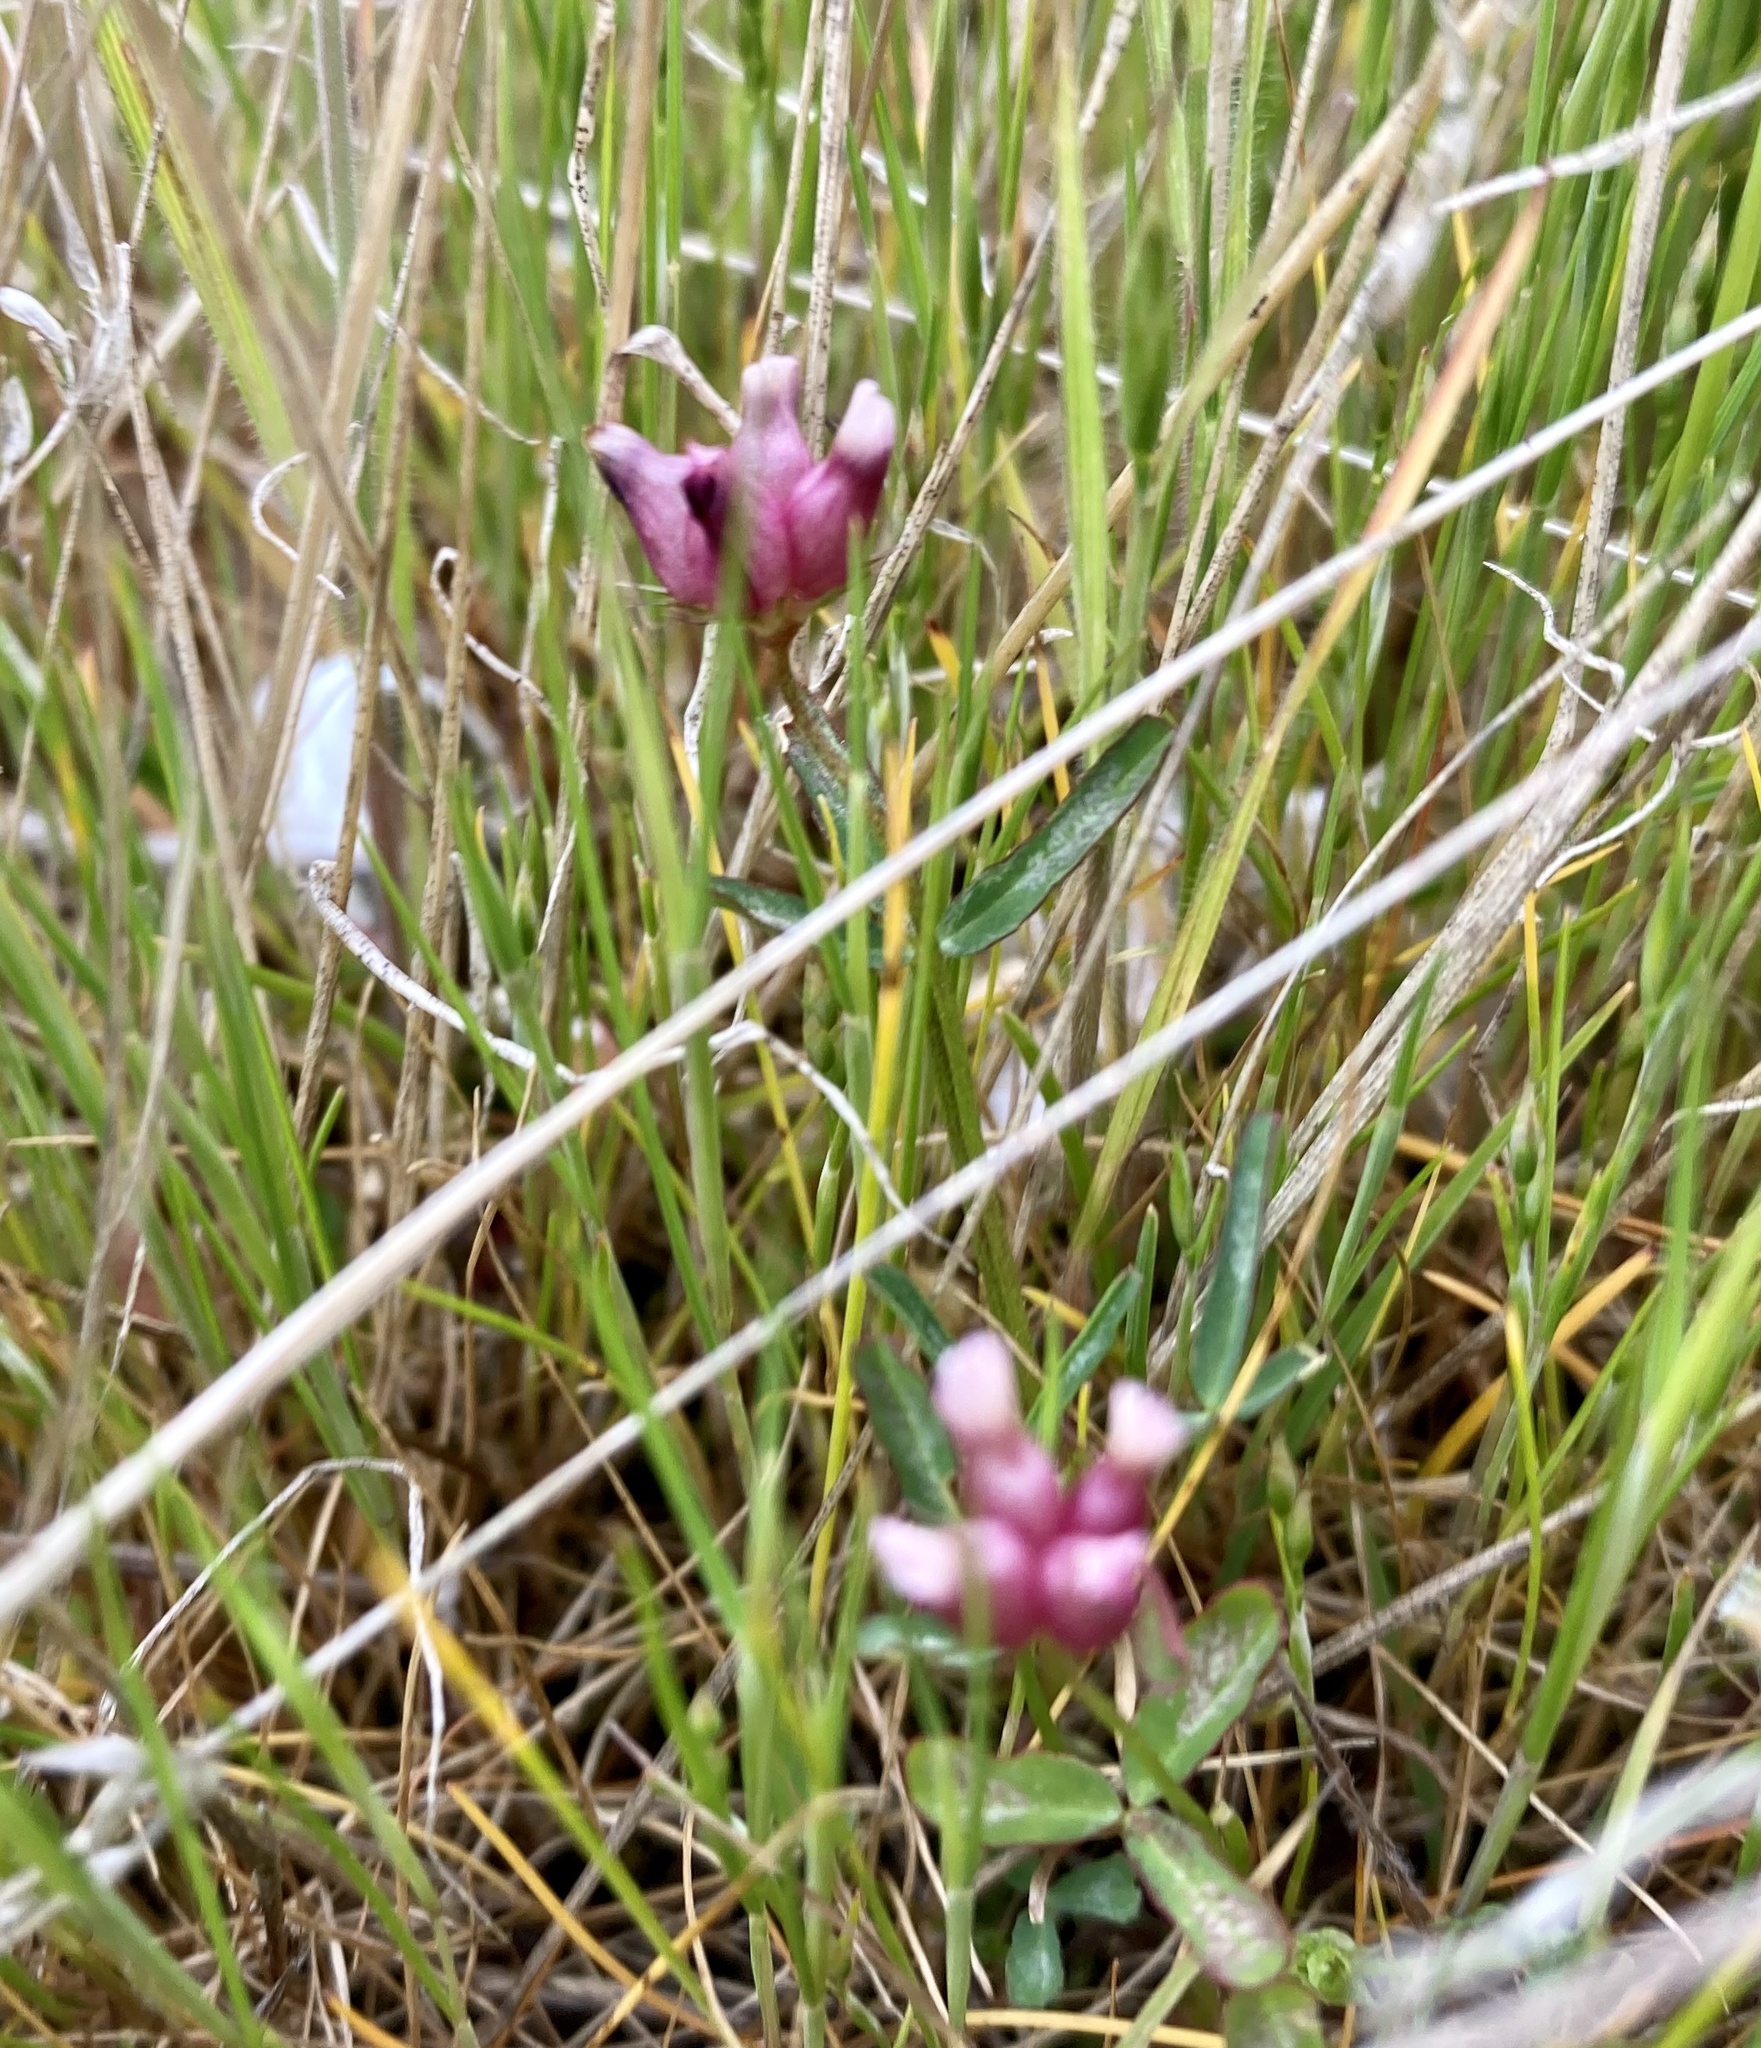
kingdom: Plantae
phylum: Tracheophyta
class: Magnoliopsida
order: Fabales
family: Fabaceae
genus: Trifolium
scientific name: Trifolium depauperatum
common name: Poverty clover
